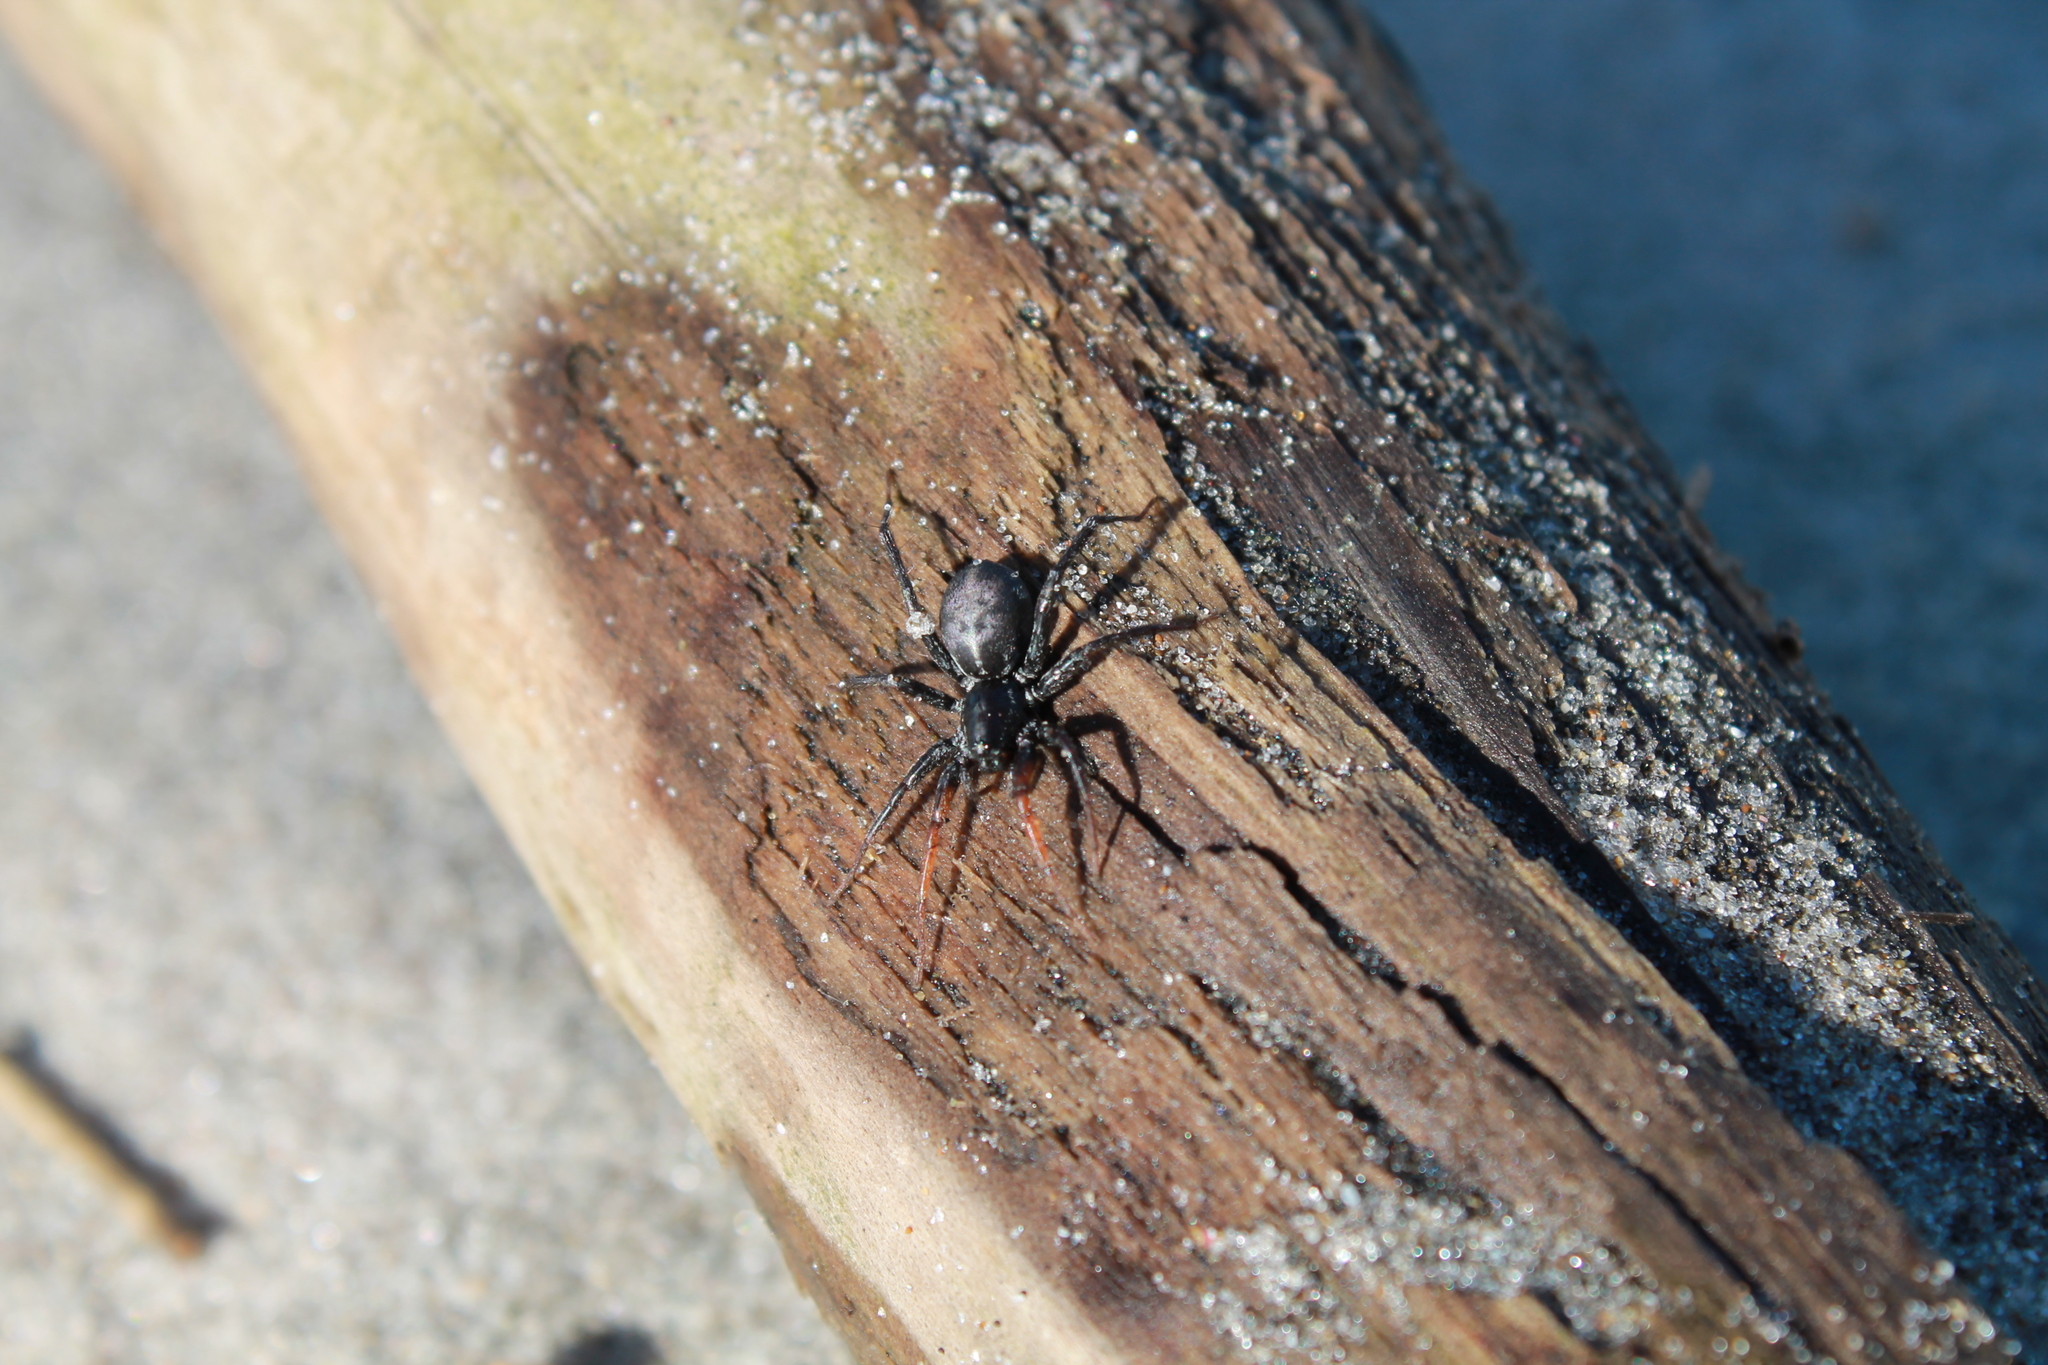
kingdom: Animalia
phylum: Arthropoda
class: Arachnida
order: Araneae
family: Corinnidae
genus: Nyssus
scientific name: Nyssus coloripes
